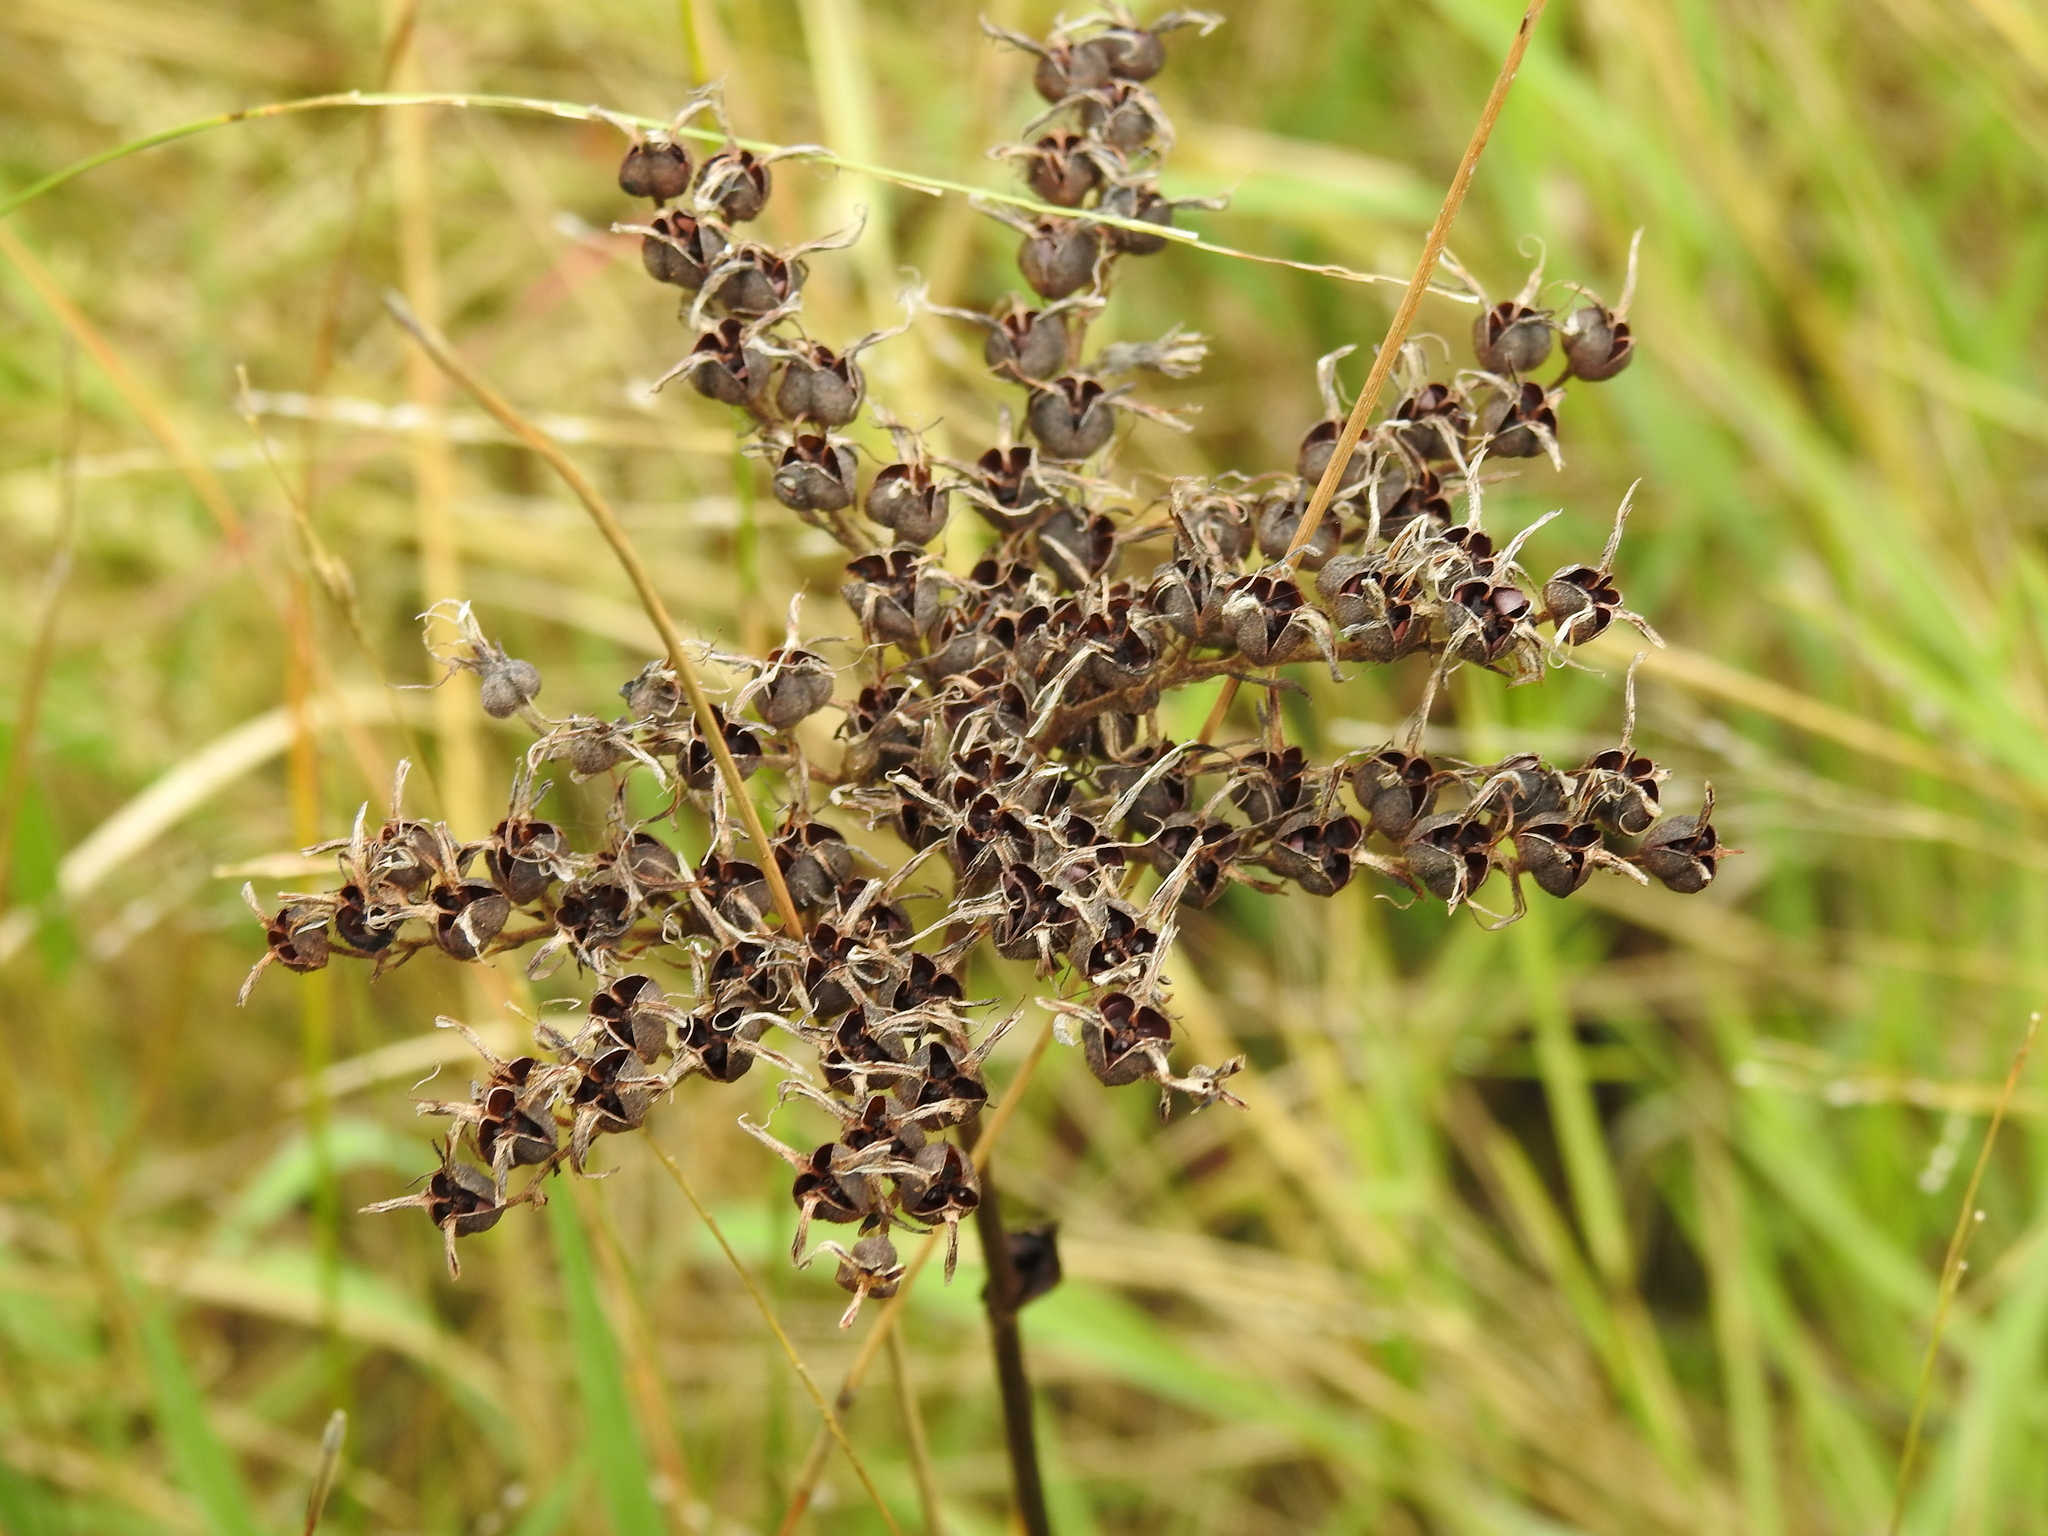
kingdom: Plantae
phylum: Tracheophyta
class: Liliopsida
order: Commelinales
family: Haemodoraceae
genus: Lachnanthes
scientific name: Lachnanthes caroliana
